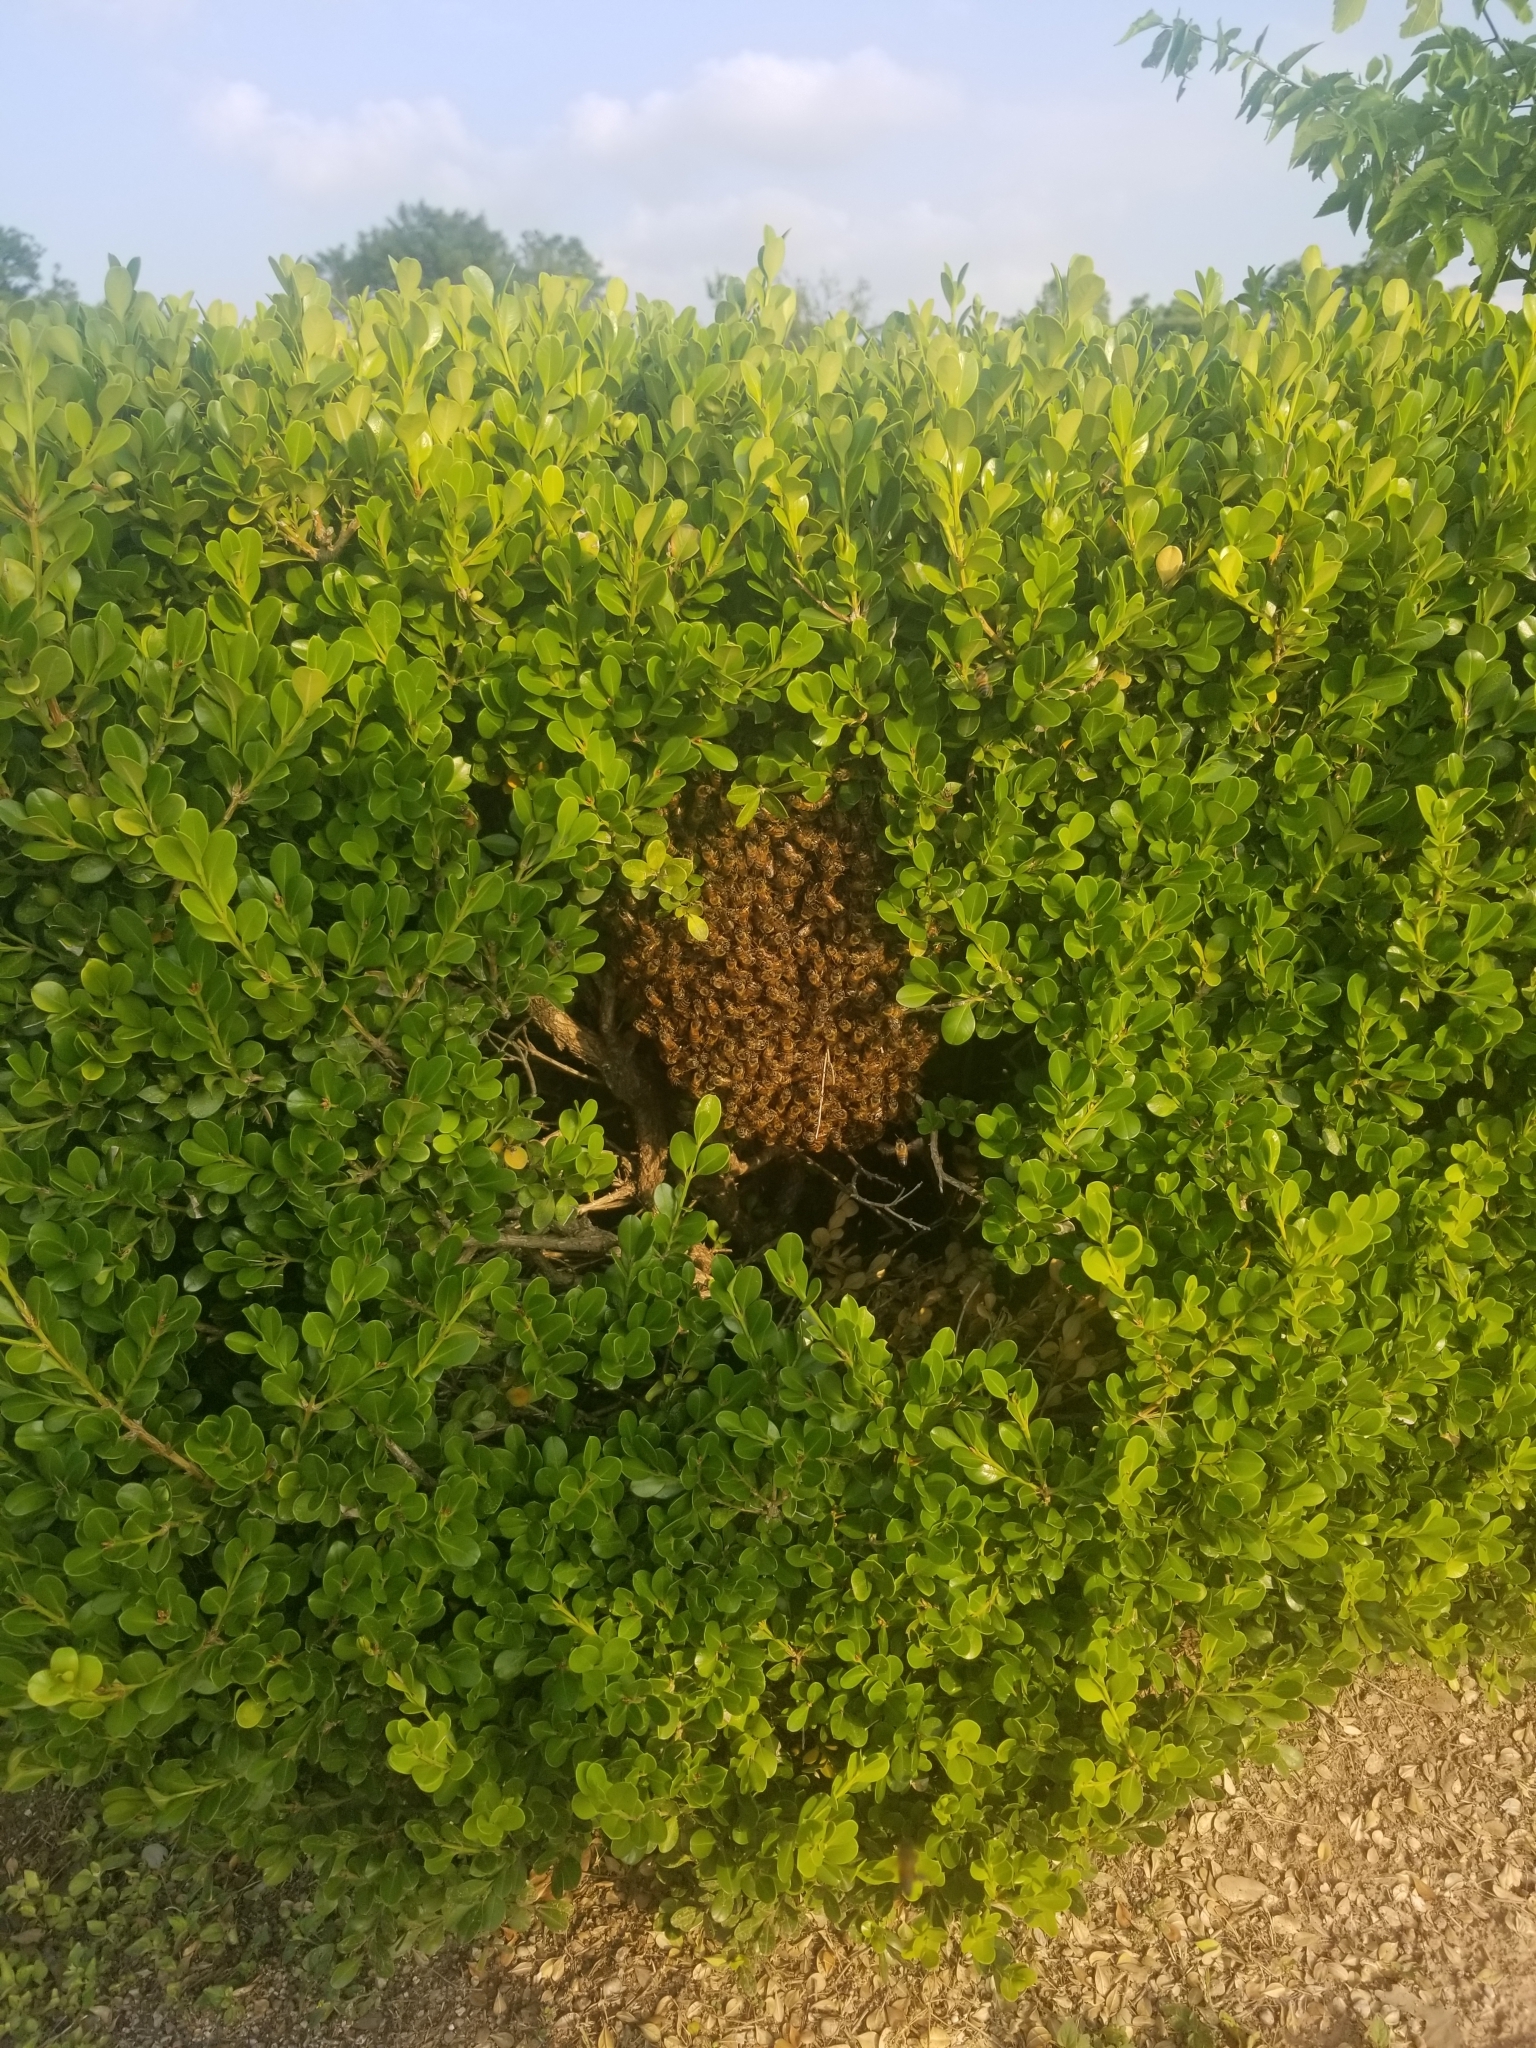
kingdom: Animalia
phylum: Arthropoda
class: Insecta
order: Hymenoptera
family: Apidae
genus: Apis
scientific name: Apis mellifera
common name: Honey bee
